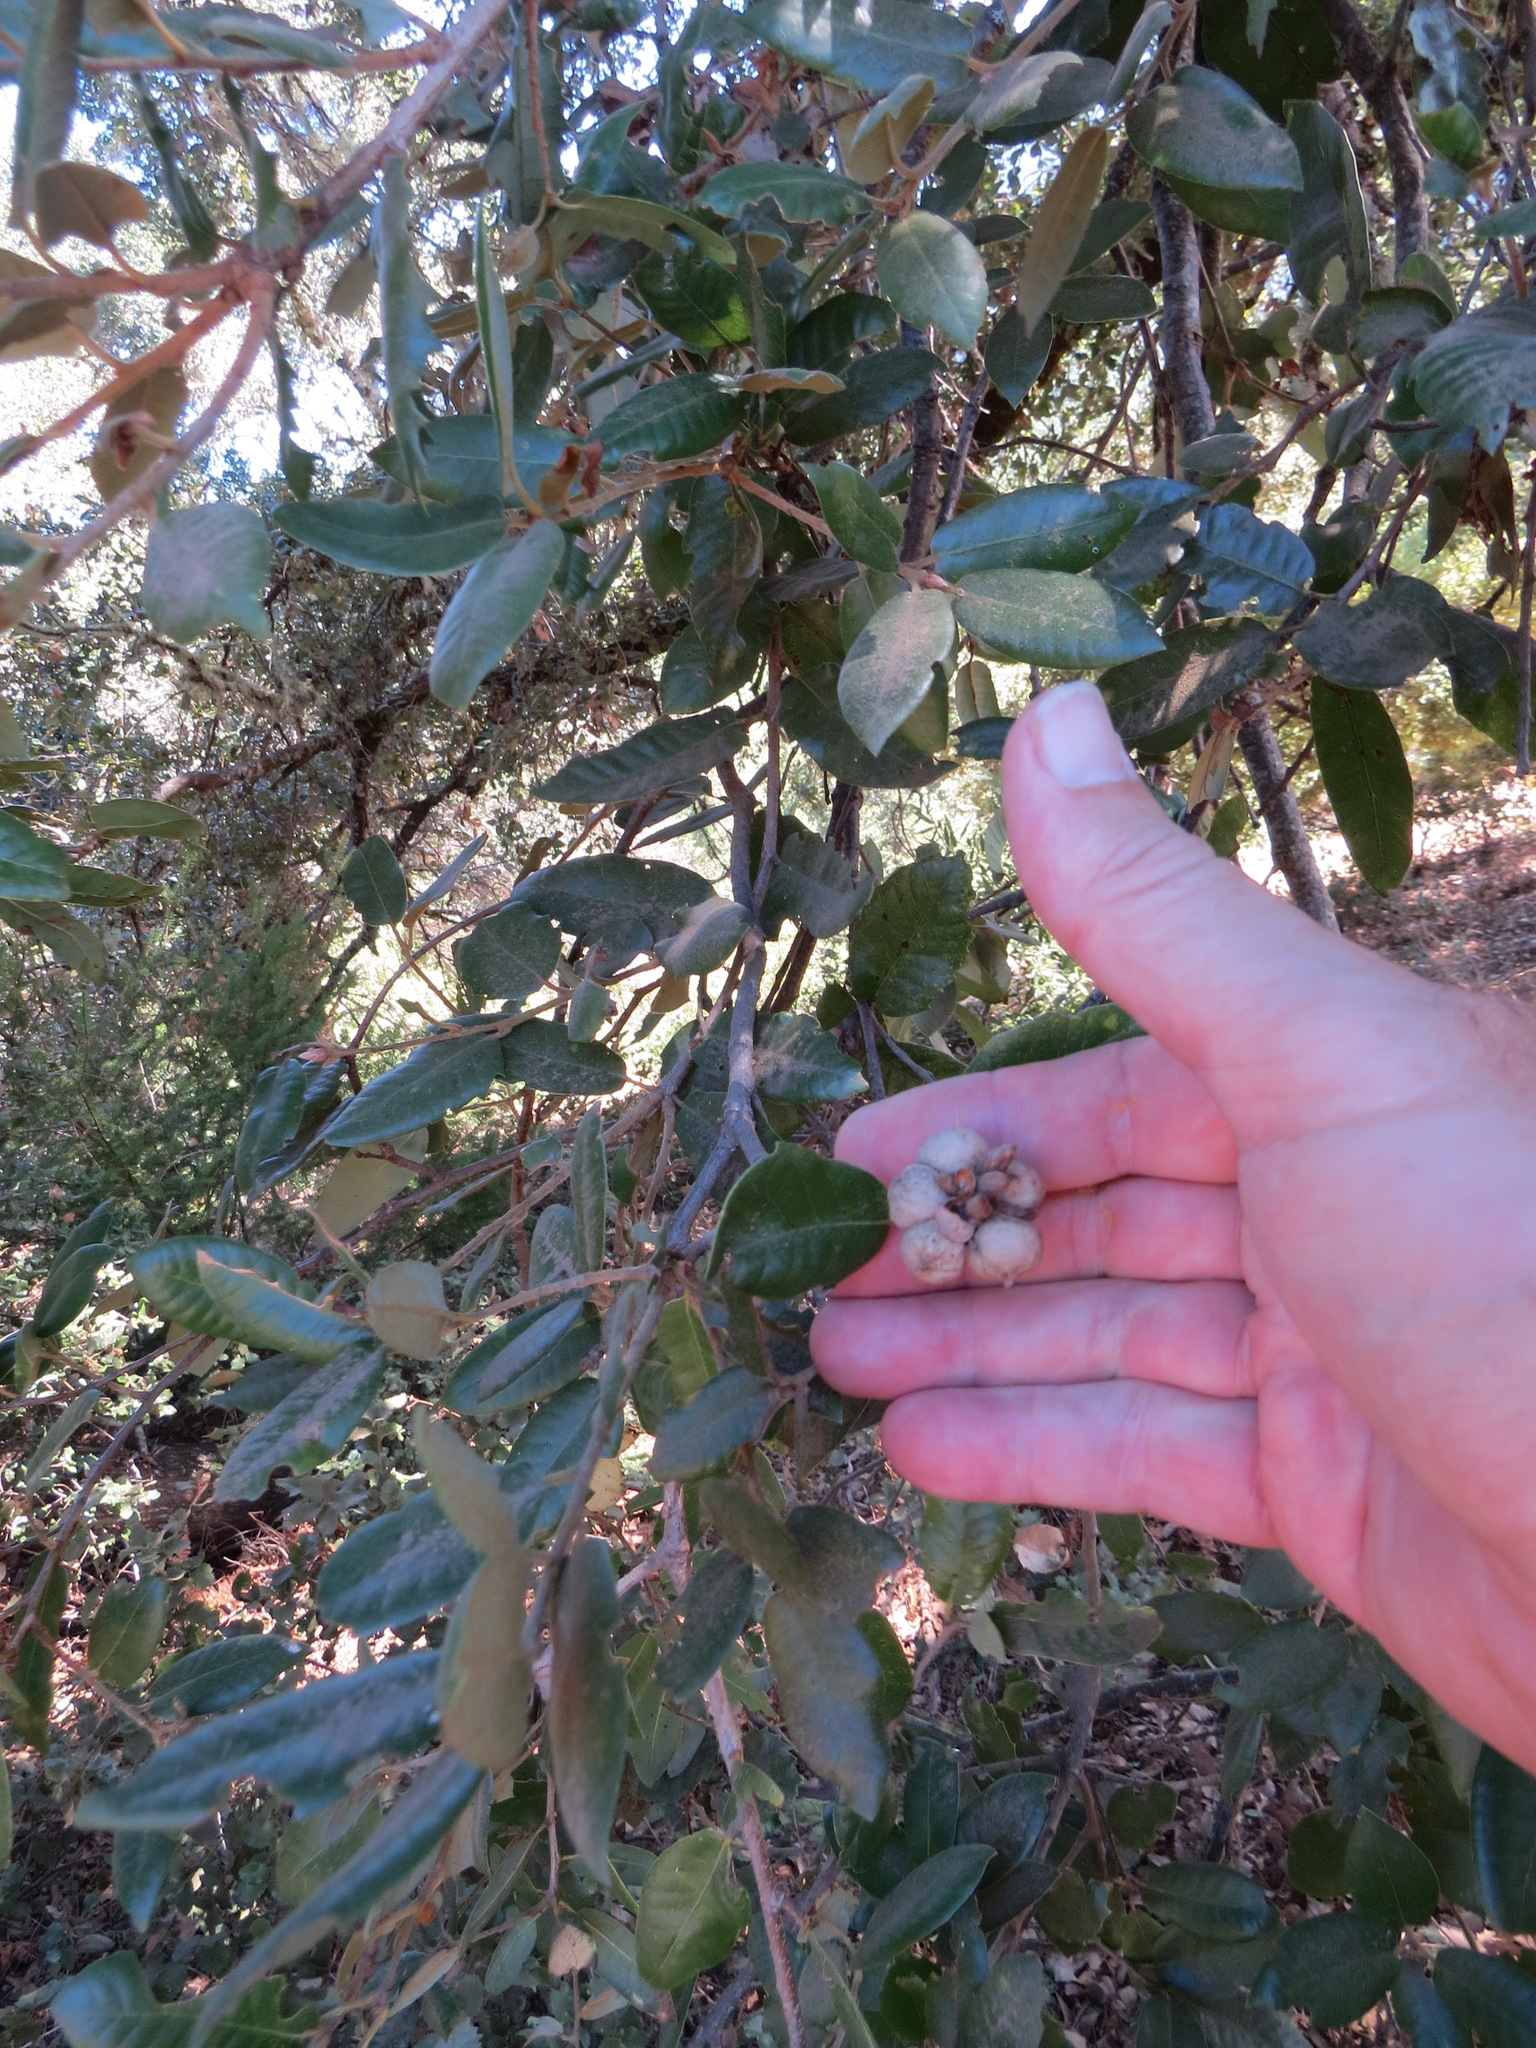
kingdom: Animalia
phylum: Arthropoda
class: Insecta
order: Hymenoptera
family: Cynipidae
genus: Heteroecus
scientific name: Heteroecus
